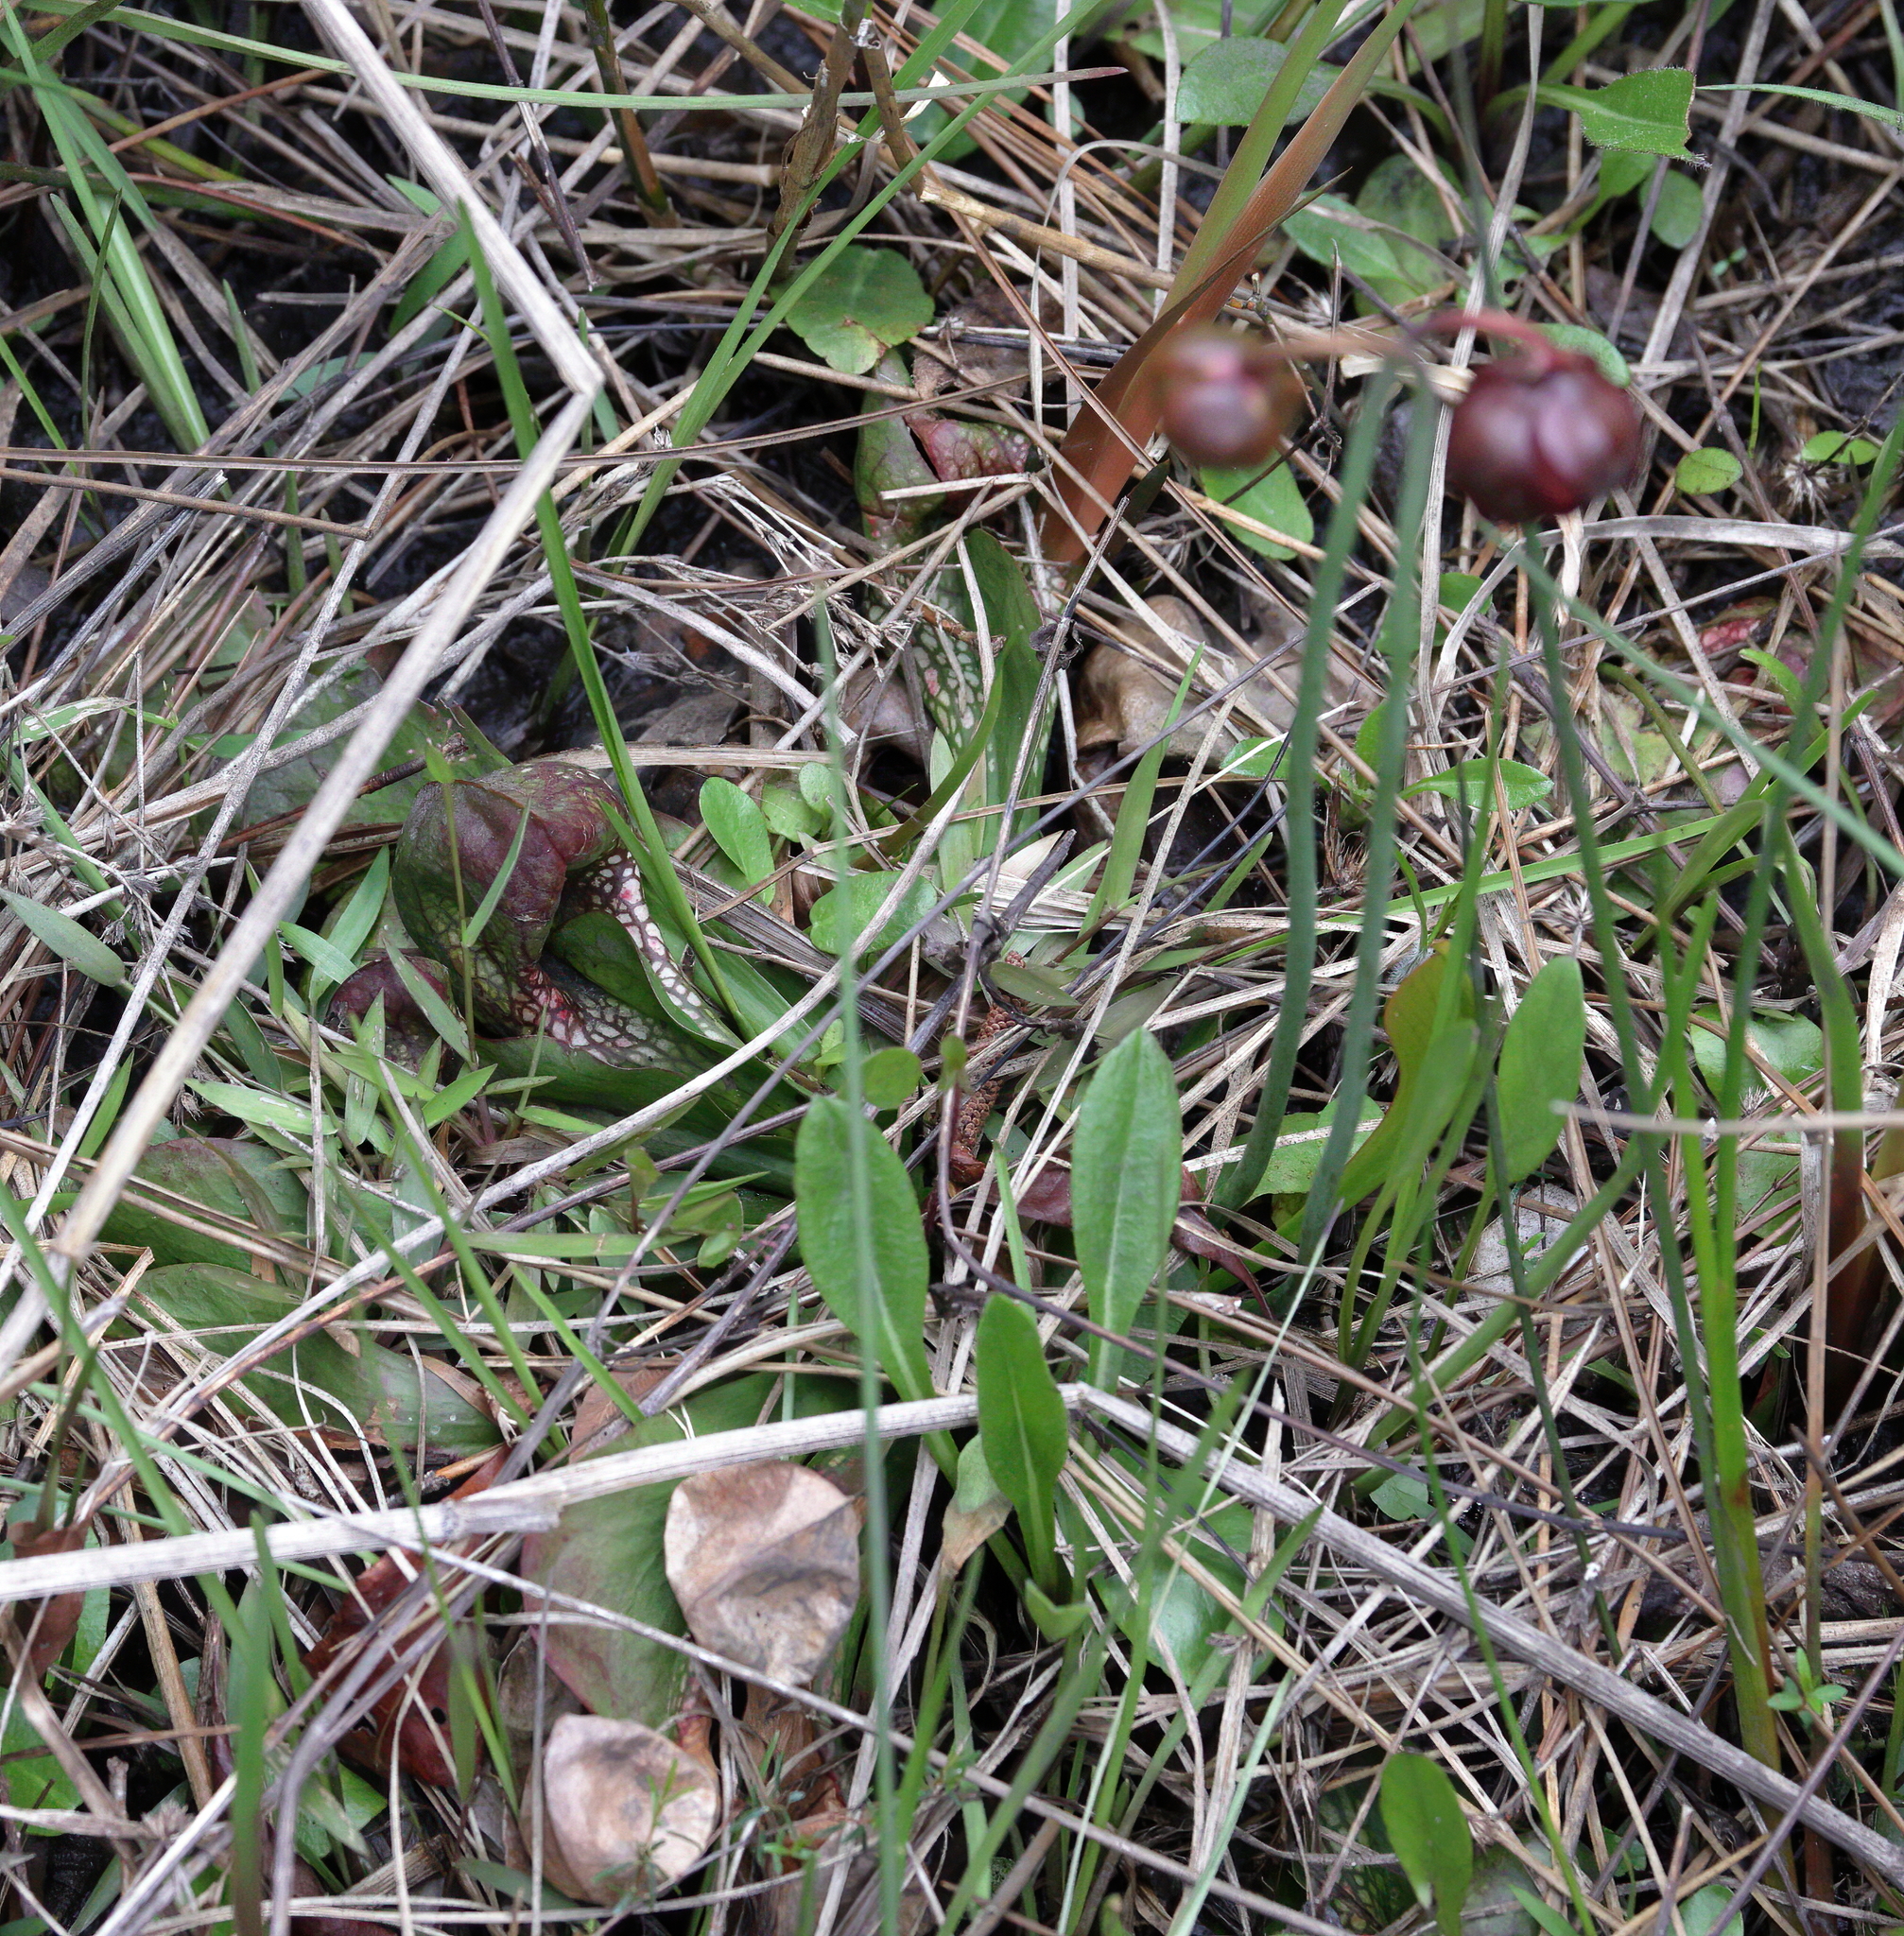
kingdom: Plantae
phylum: Tracheophyta
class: Magnoliopsida
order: Ericales
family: Sarraceniaceae
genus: Sarracenia
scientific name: Sarracenia psittacina
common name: Parrot pitcherplant
